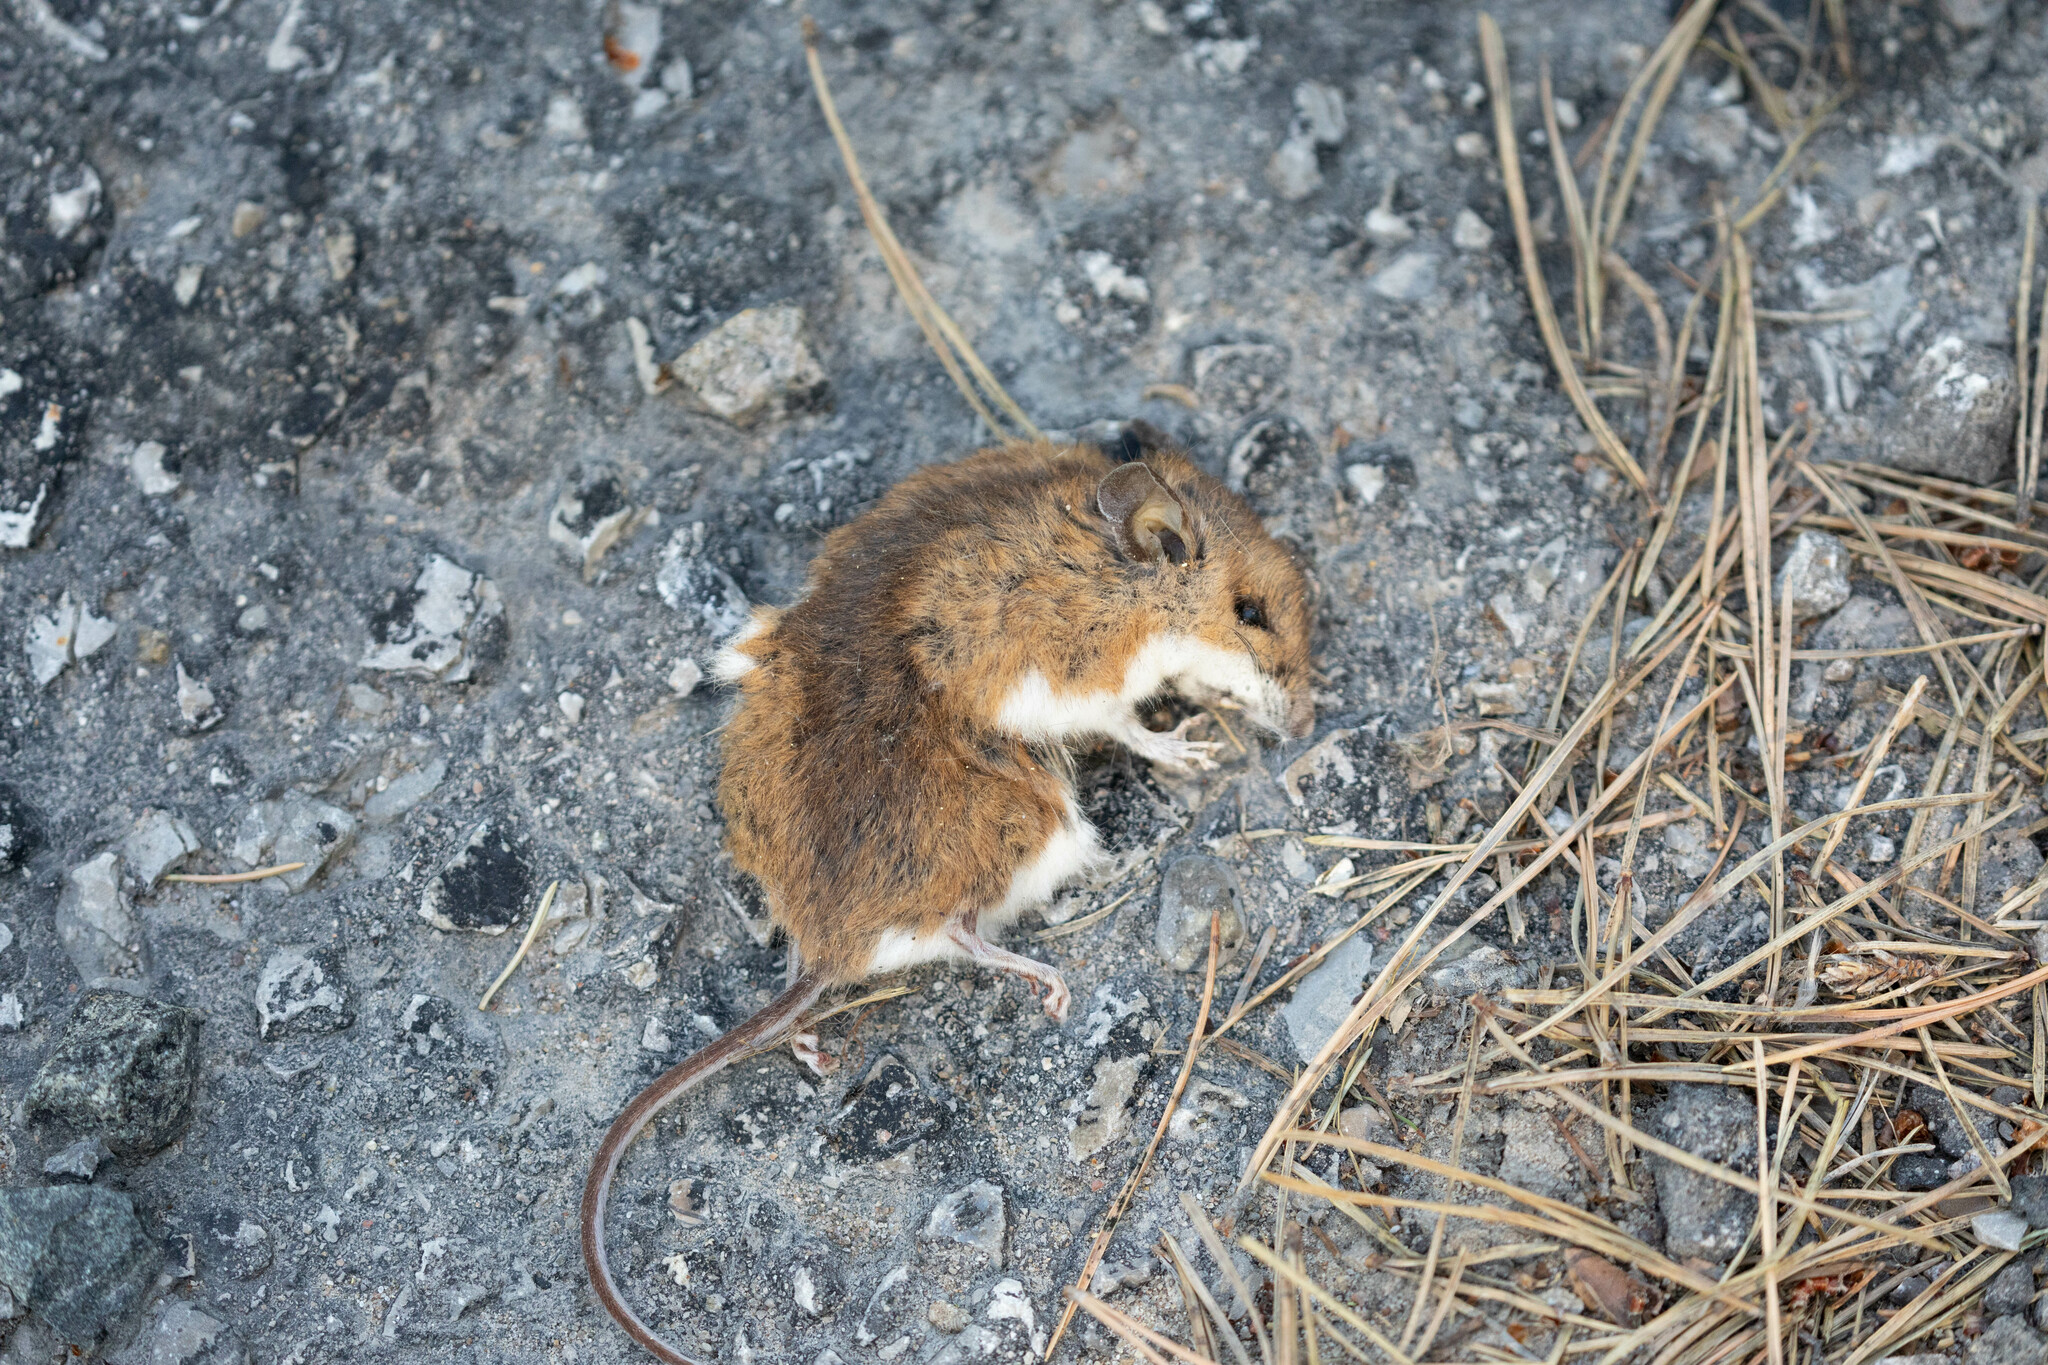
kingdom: Animalia
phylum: Chordata
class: Mammalia
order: Rodentia
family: Cricetidae
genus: Peromyscus
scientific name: Peromyscus maniculatus
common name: Deer mouse
